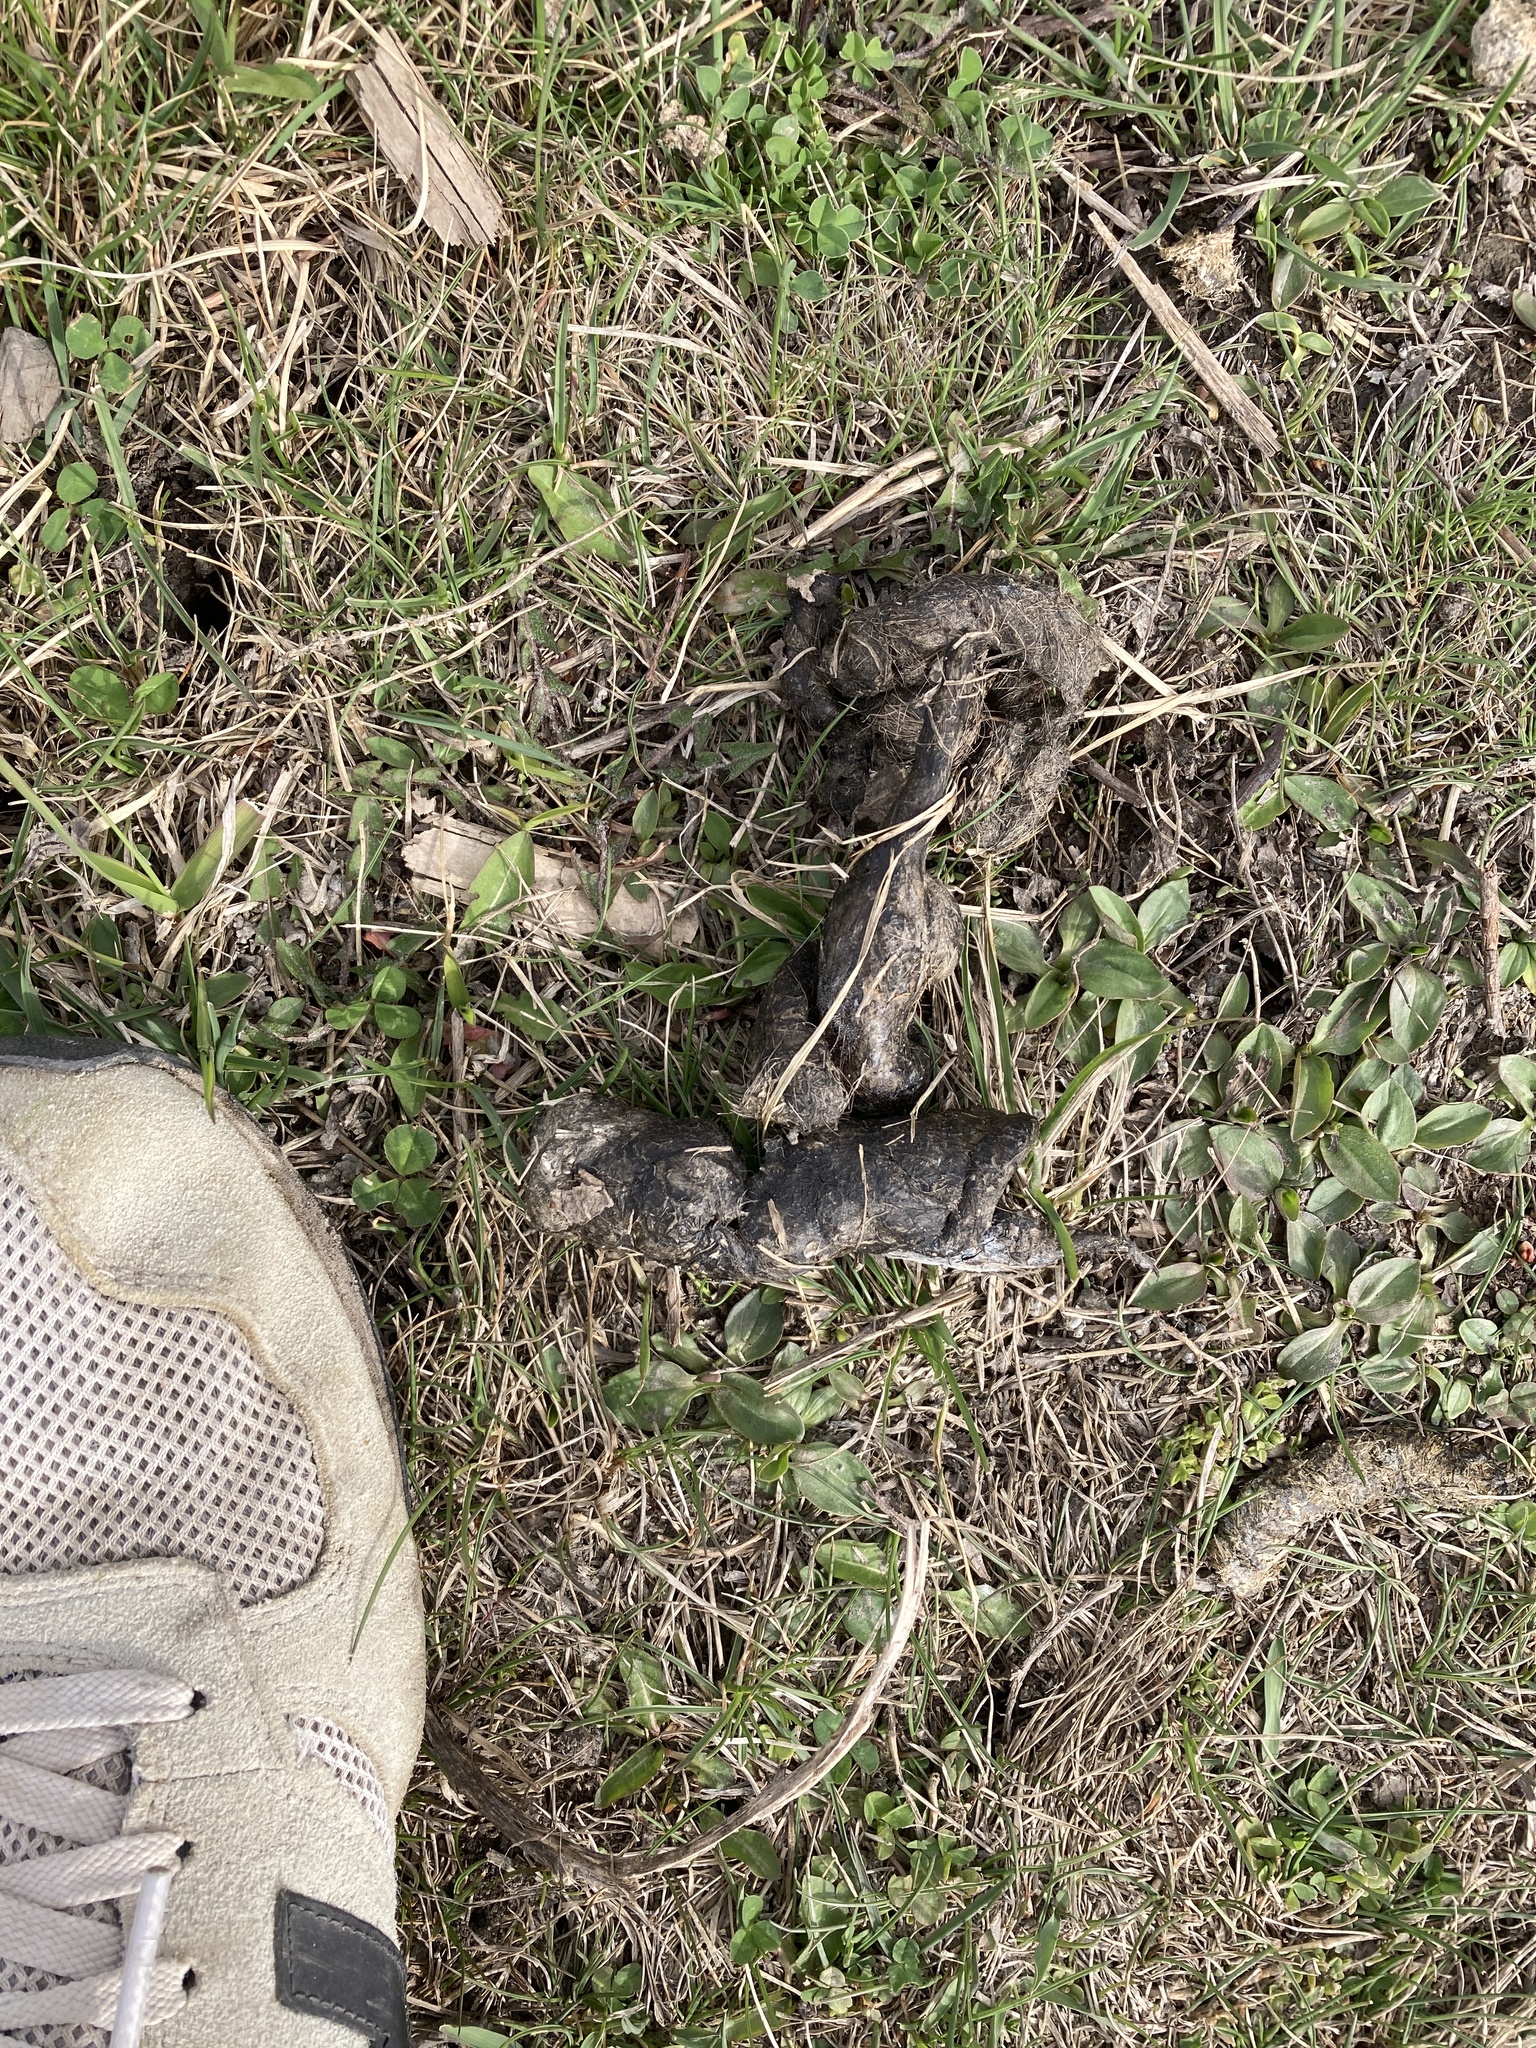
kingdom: Animalia
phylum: Chordata
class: Mammalia
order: Carnivora
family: Canidae
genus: Canis
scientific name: Canis latrans
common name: Coyote
